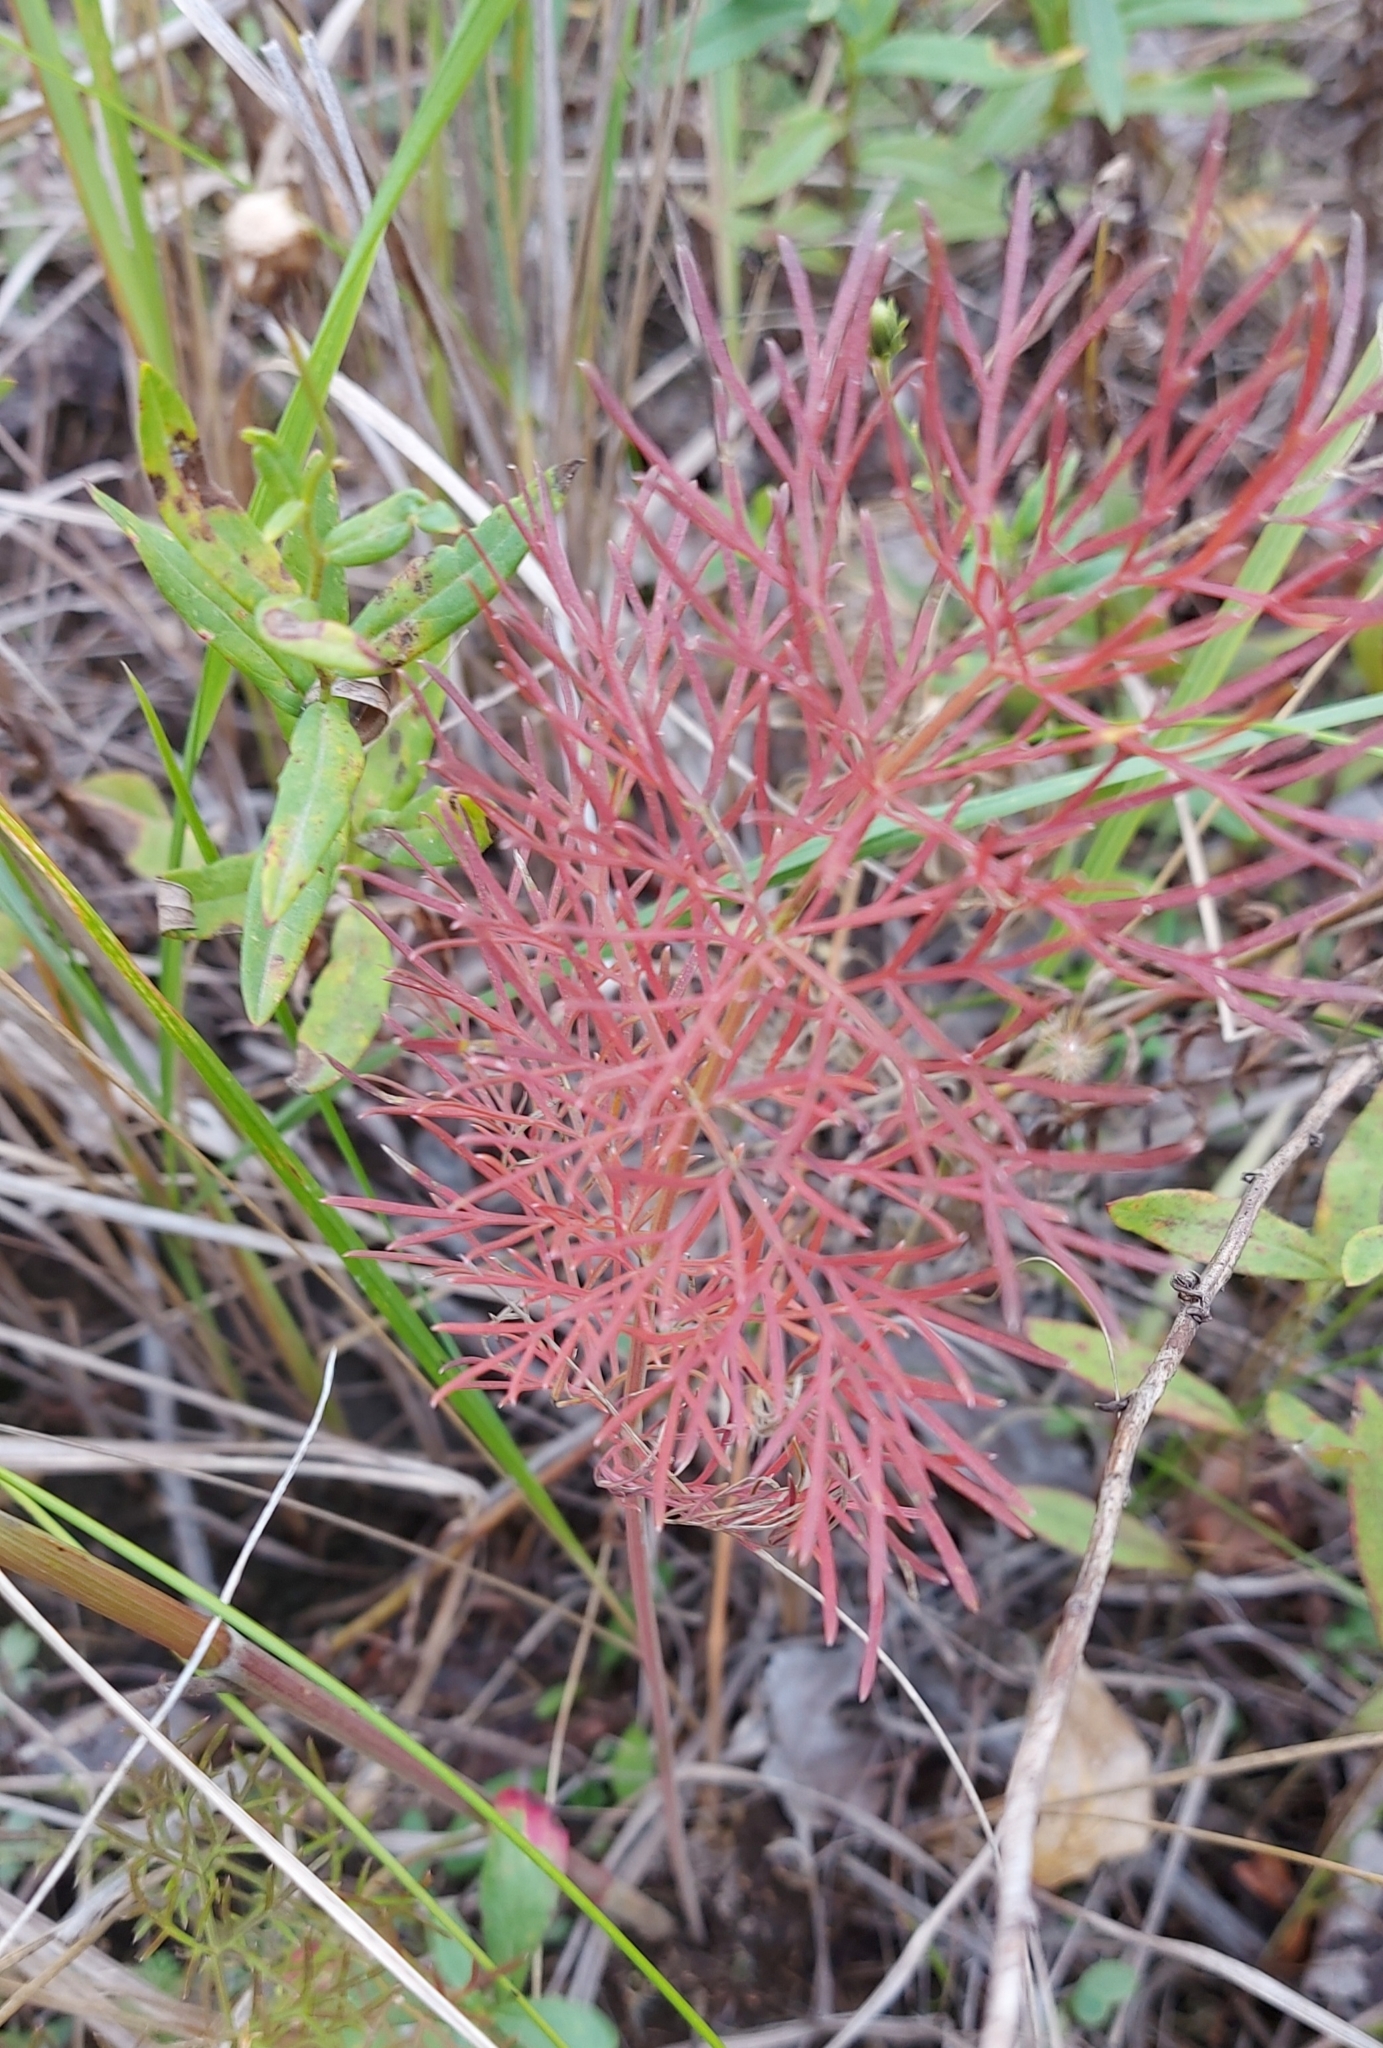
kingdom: Plantae
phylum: Tracheophyta
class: Magnoliopsida
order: Apiales
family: Apiaceae
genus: Seseli
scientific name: Seseli annuum
